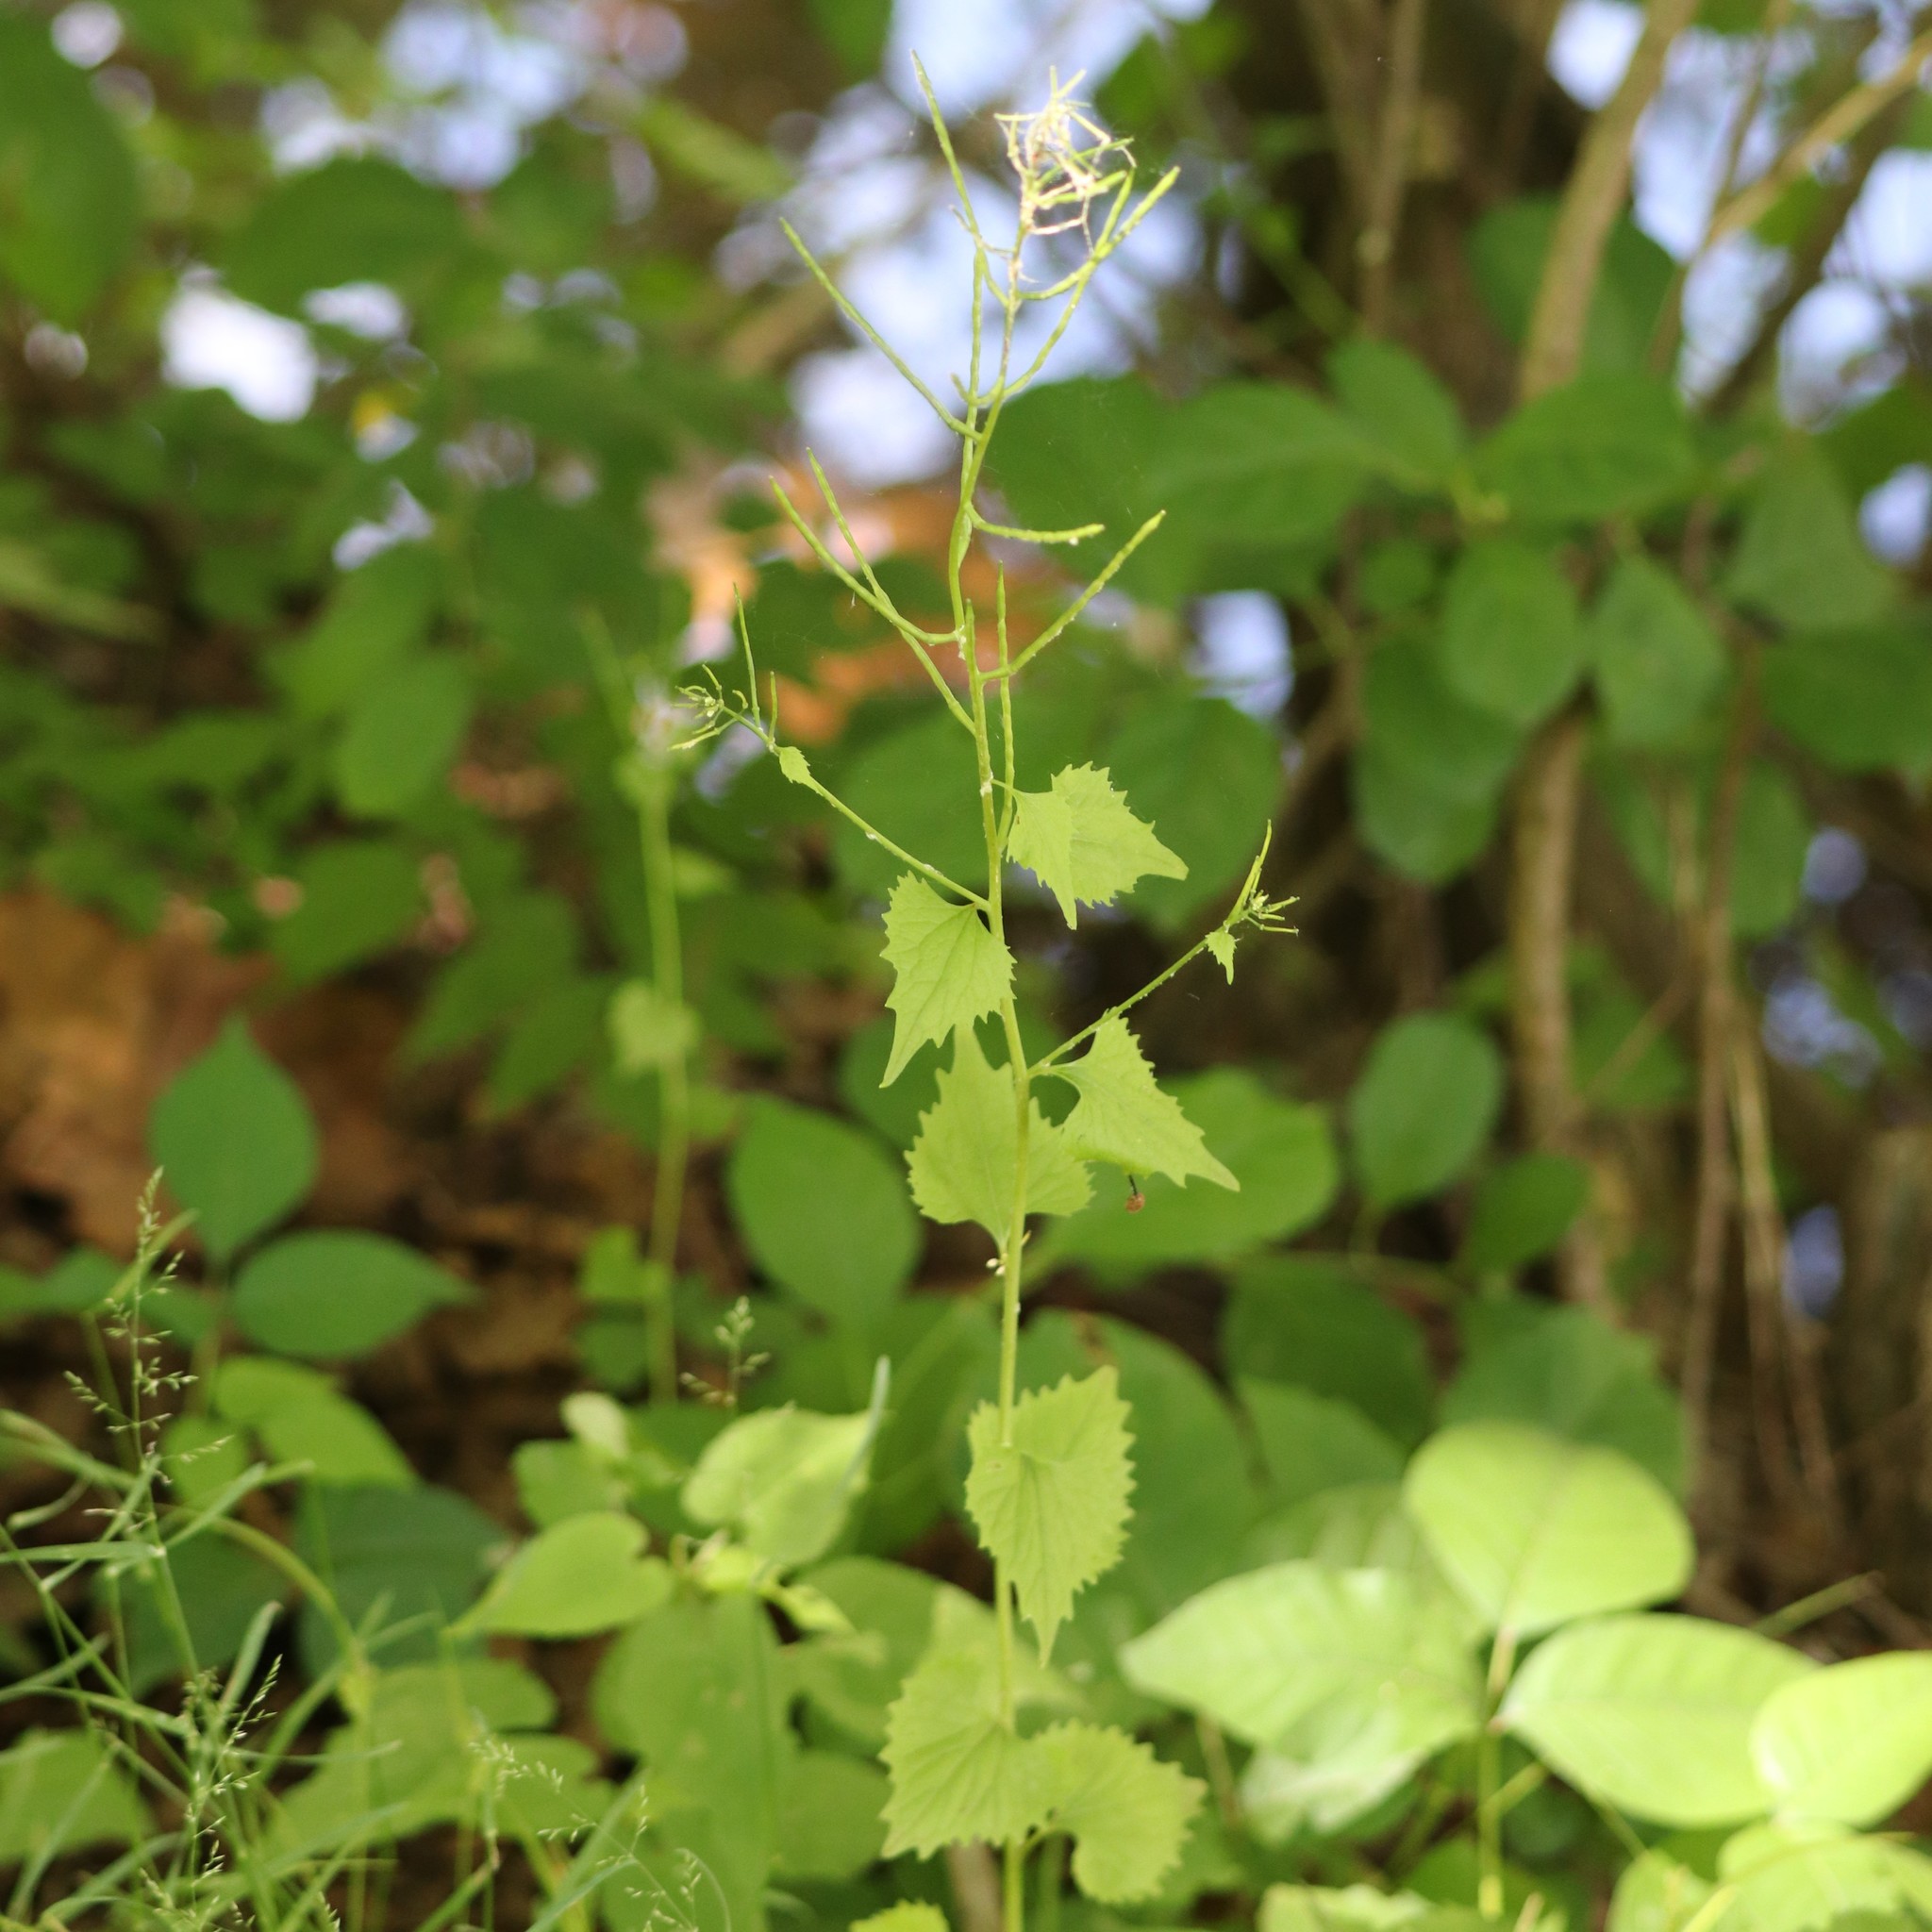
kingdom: Plantae
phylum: Tracheophyta
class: Magnoliopsida
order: Brassicales
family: Brassicaceae
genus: Alliaria
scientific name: Alliaria petiolata
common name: Garlic mustard
